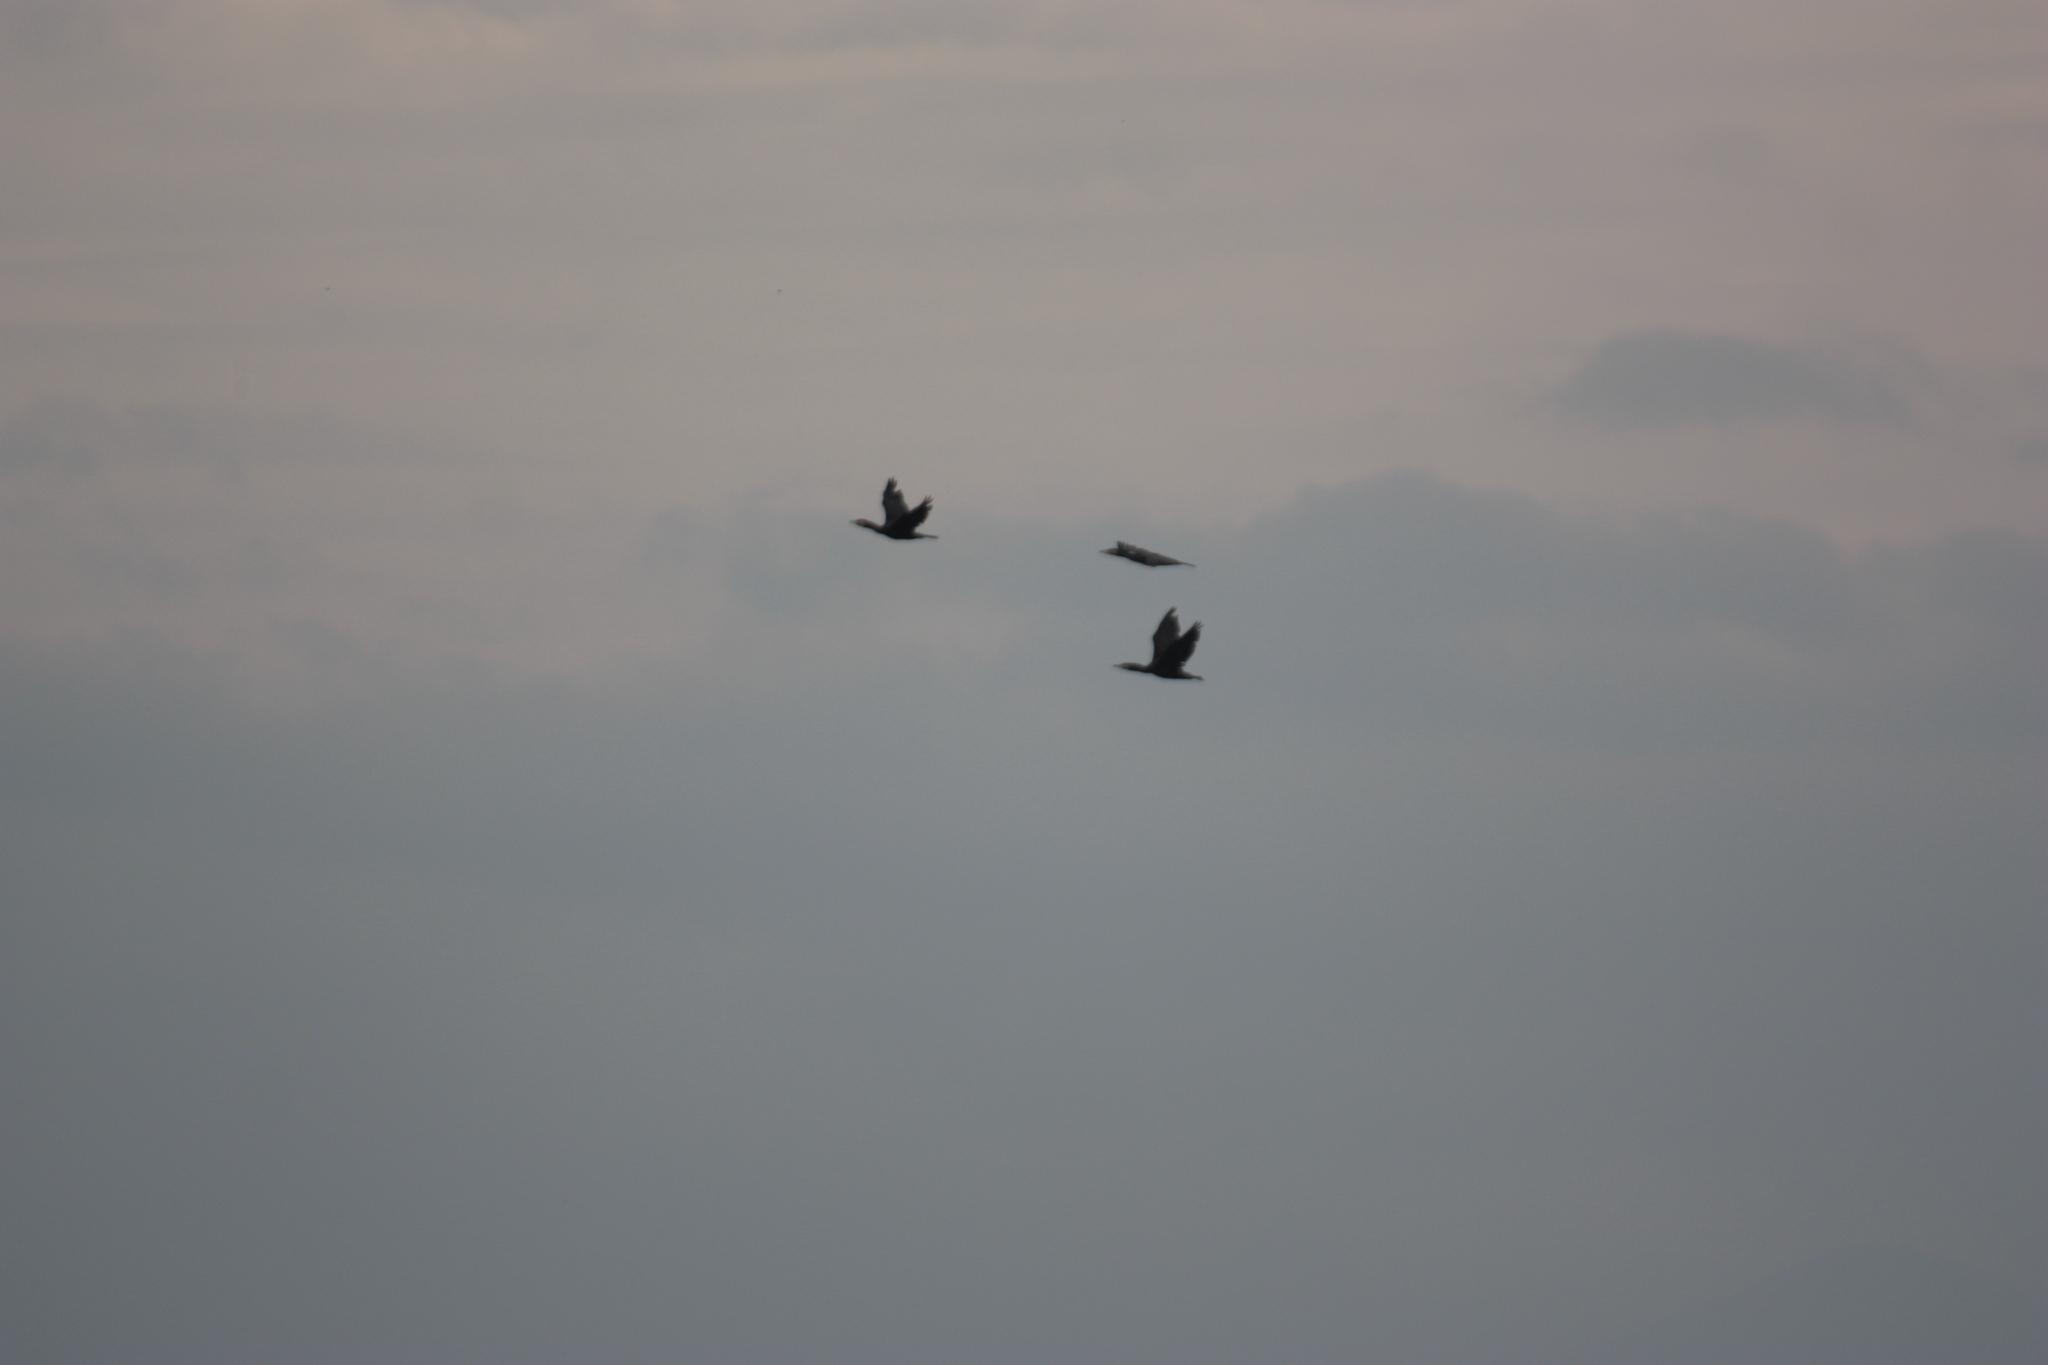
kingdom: Animalia
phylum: Chordata
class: Aves
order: Suliformes
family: Phalacrocoracidae
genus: Phalacrocorax
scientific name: Phalacrocorax carbo
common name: Great cormorant
